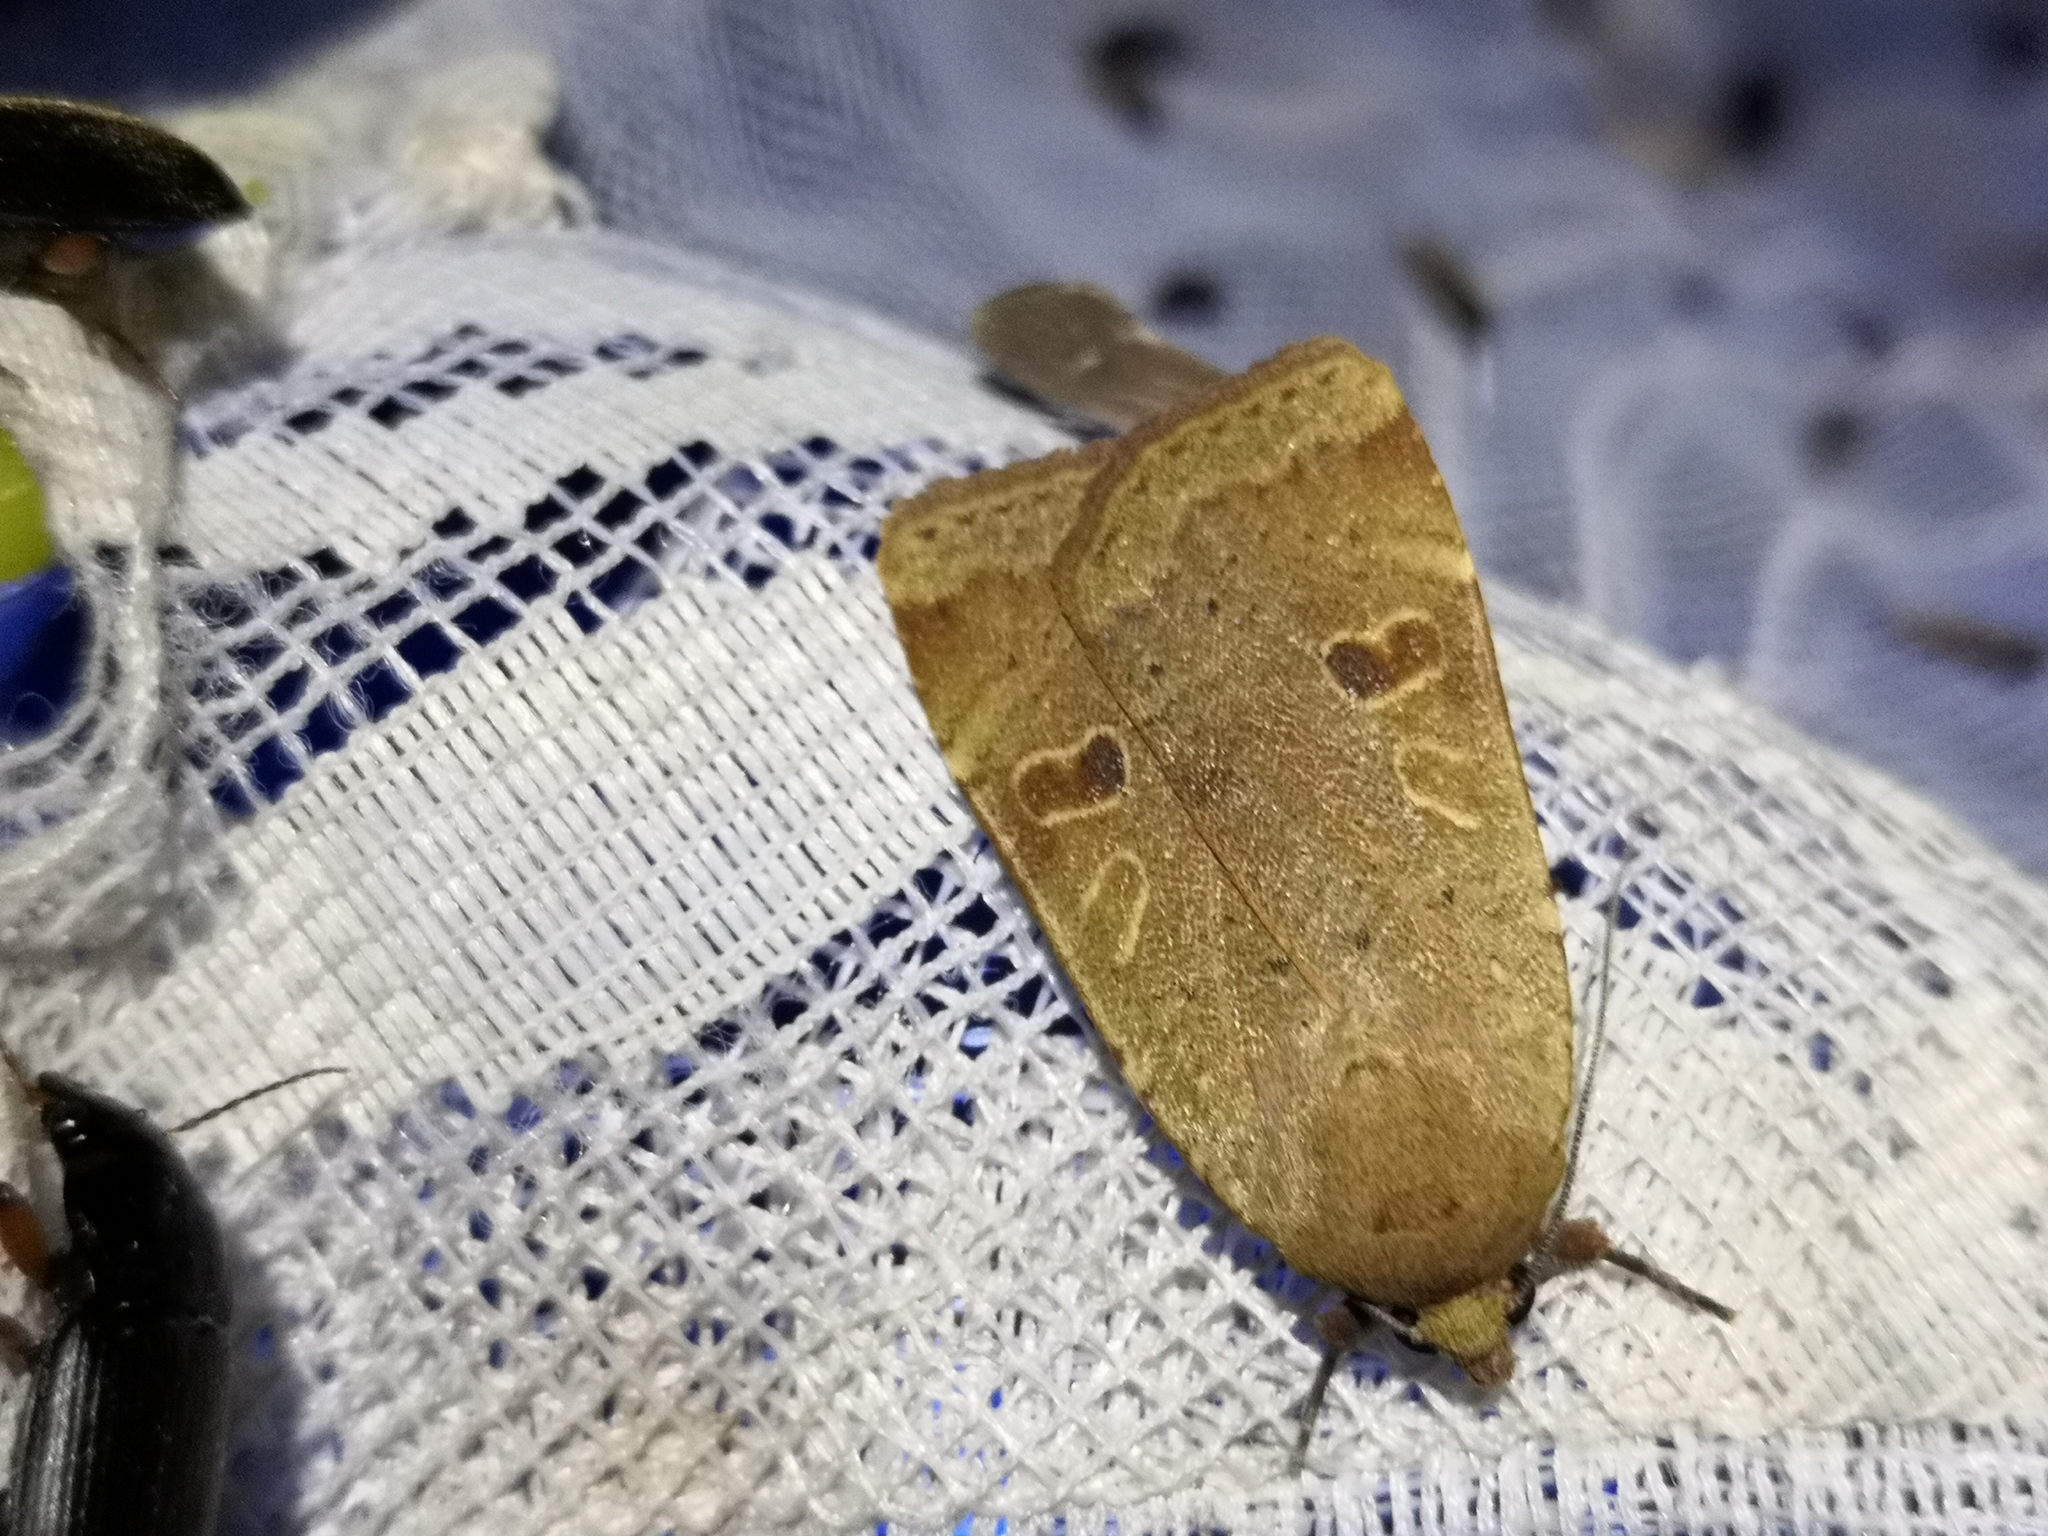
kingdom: Animalia
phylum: Arthropoda
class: Insecta
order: Lepidoptera
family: Noctuidae
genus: Noctua
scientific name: Noctua comes
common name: Lesser yellow underwing
